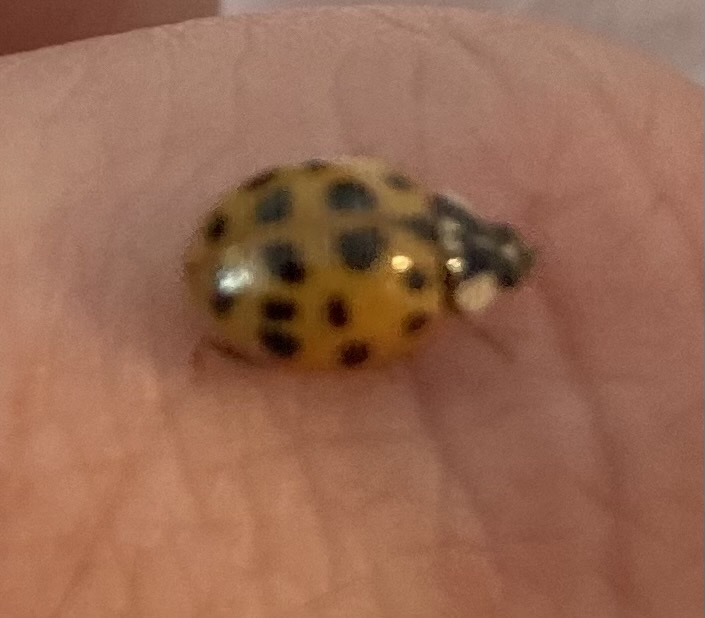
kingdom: Animalia
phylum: Arthropoda
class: Insecta
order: Coleoptera
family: Coccinellidae
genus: Harmonia
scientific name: Harmonia axyridis
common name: Harlequin ladybird
